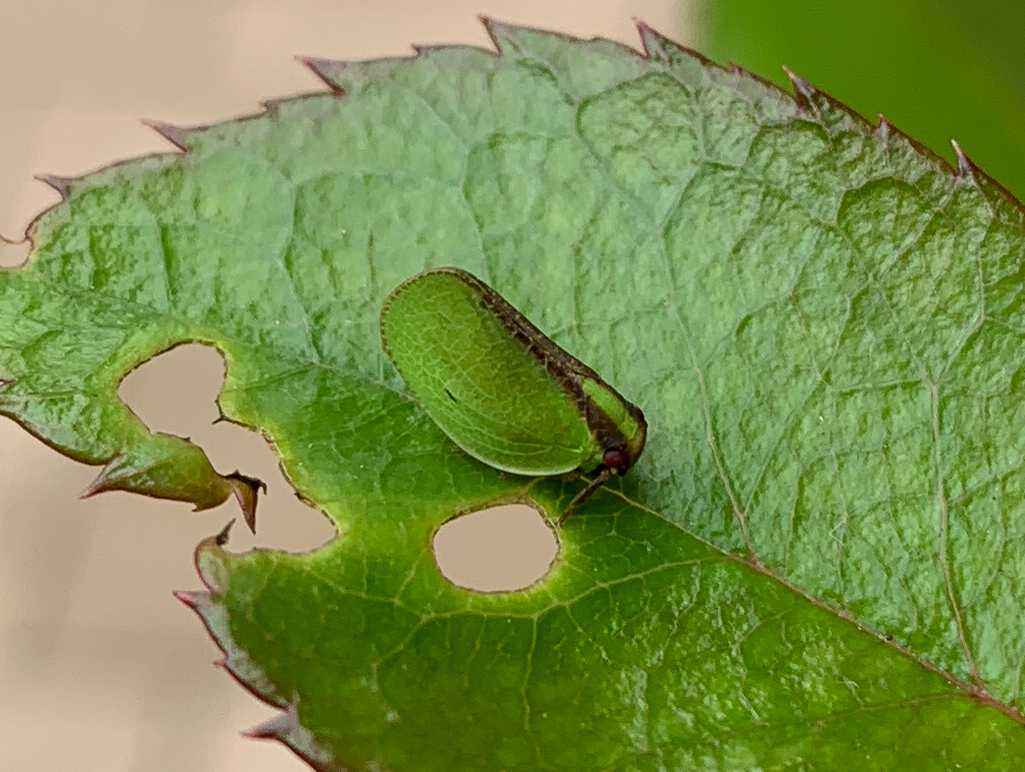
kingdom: Animalia
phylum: Arthropoda
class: Insecta
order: Hemiptera
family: Acanaloniidae
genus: Acanalonia
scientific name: Acanalonia bivittata
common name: Two-striped planthopper
